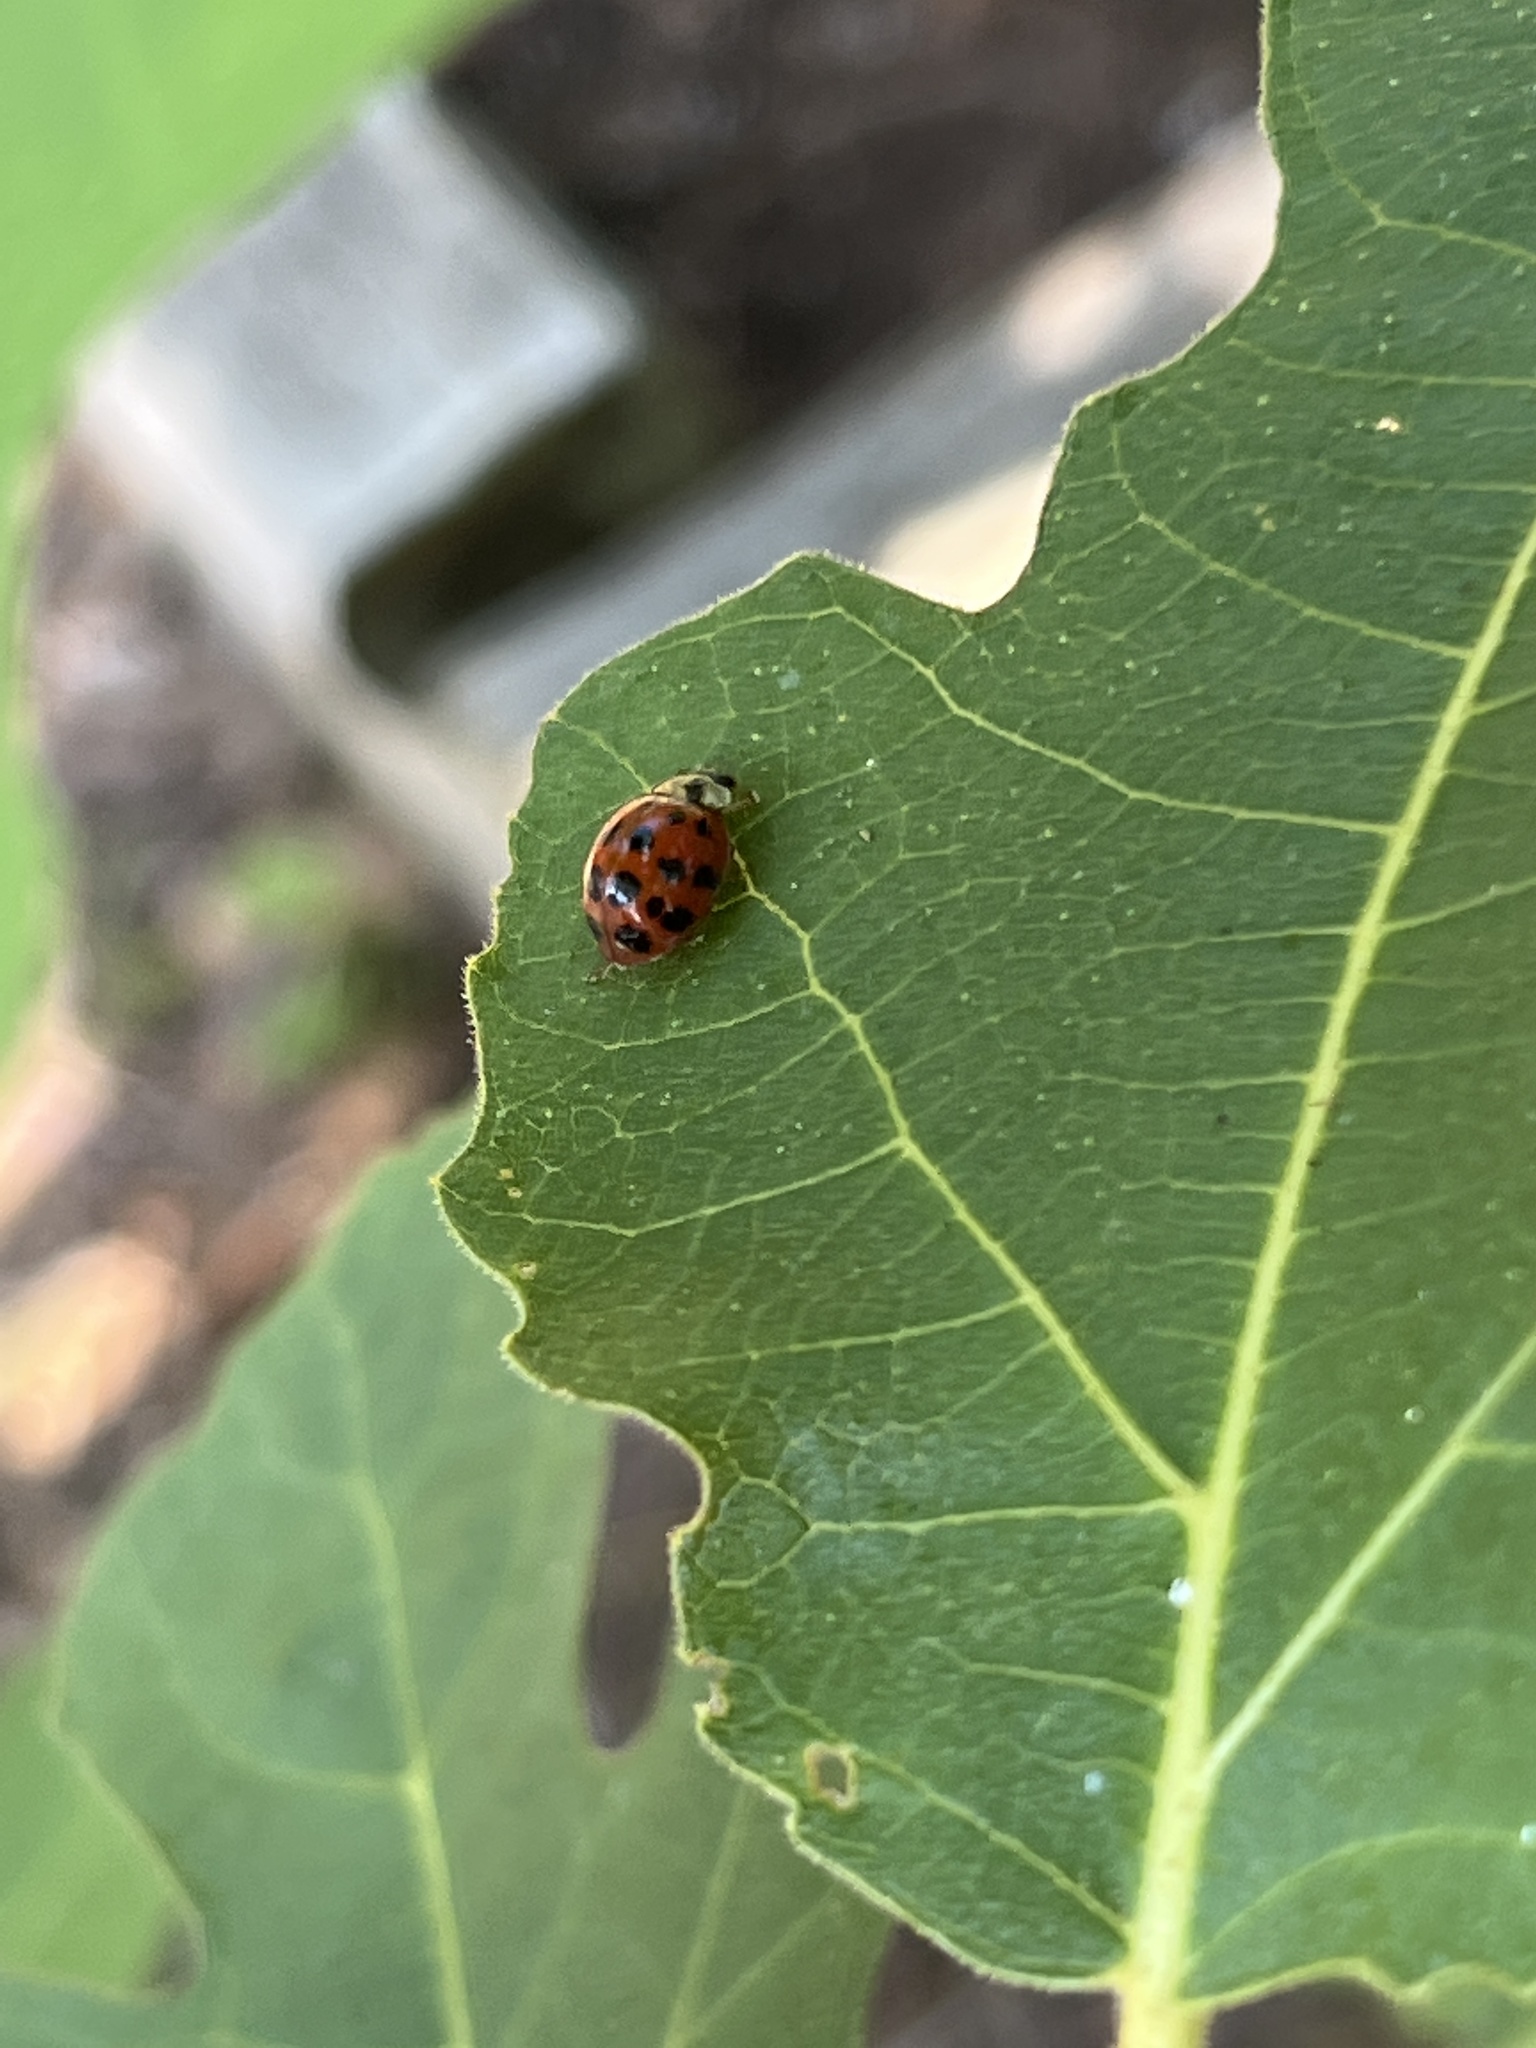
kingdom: Animalia
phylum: Arthropoda
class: Insecta
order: Coleoptera
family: Coccinellidae
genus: Harmonia
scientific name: Harmonia axyridis
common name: Harlequin ladybird
